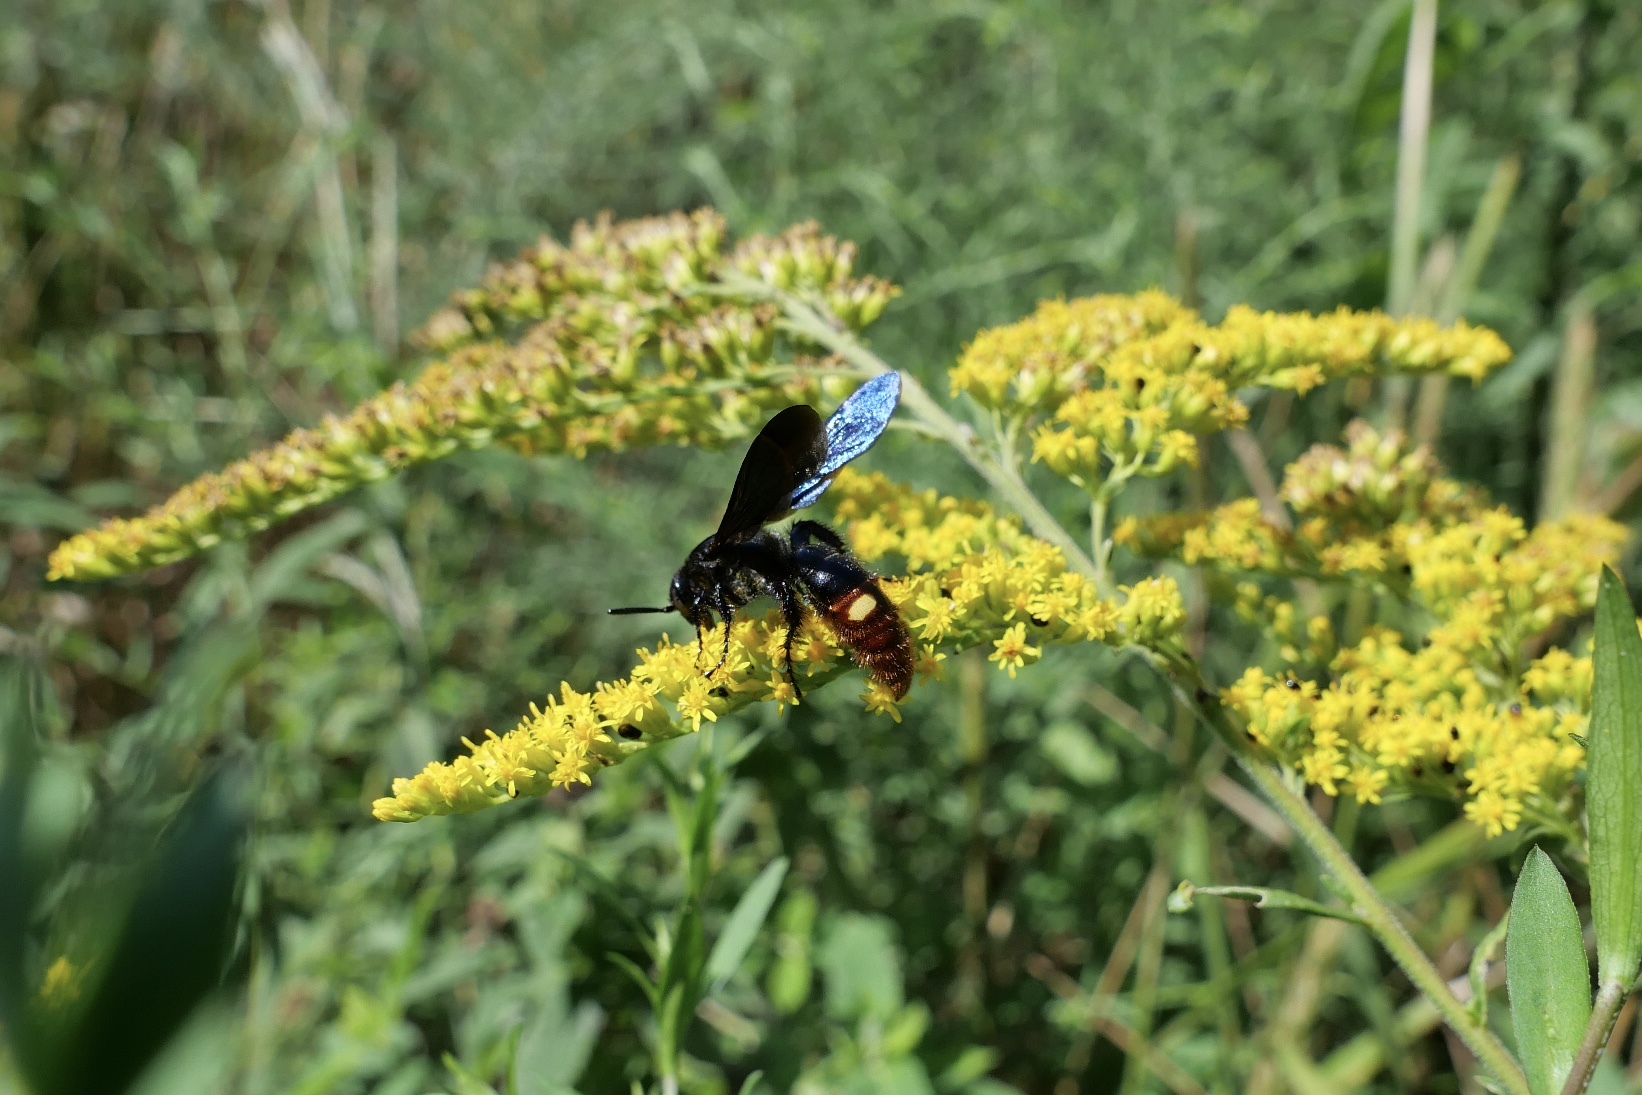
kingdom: Animalia
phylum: Arthropoda
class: Insecta
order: Hymenoptera
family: Scoliidae
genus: Scolia
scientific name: Scolia dubia
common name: Blue-winged scoliid wasp
